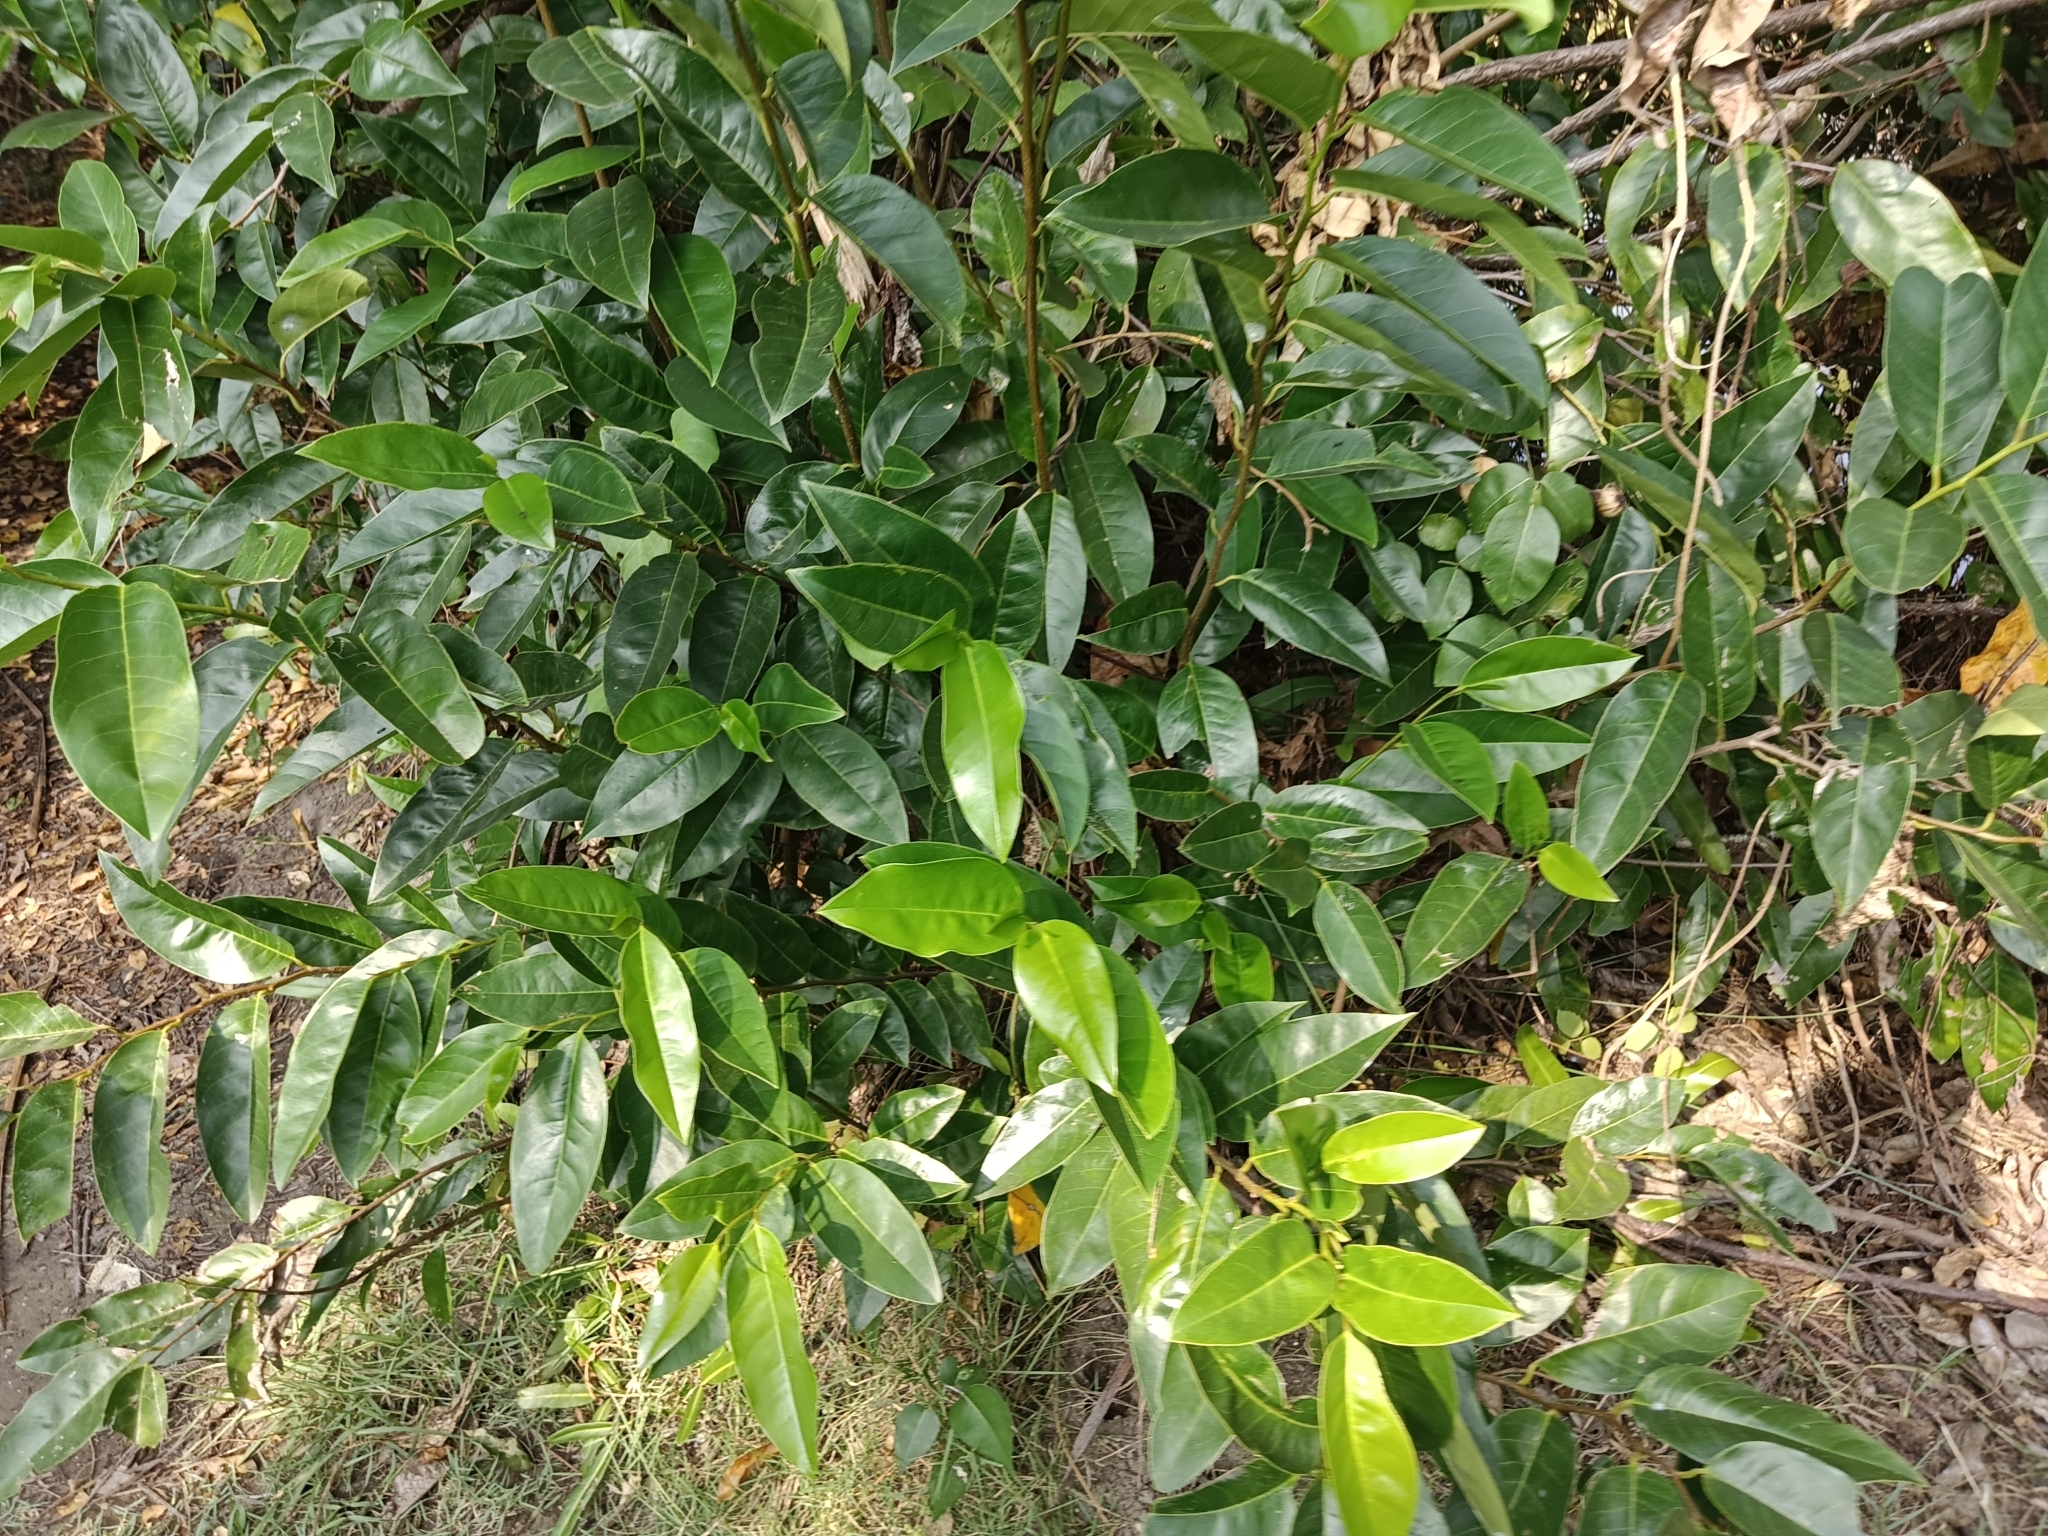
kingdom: Plantae
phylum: Tracheophyta
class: Magnoliopsida
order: Magnoliales
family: Annonaceae
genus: Annona
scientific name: Annona glabra
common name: Monkey apple
